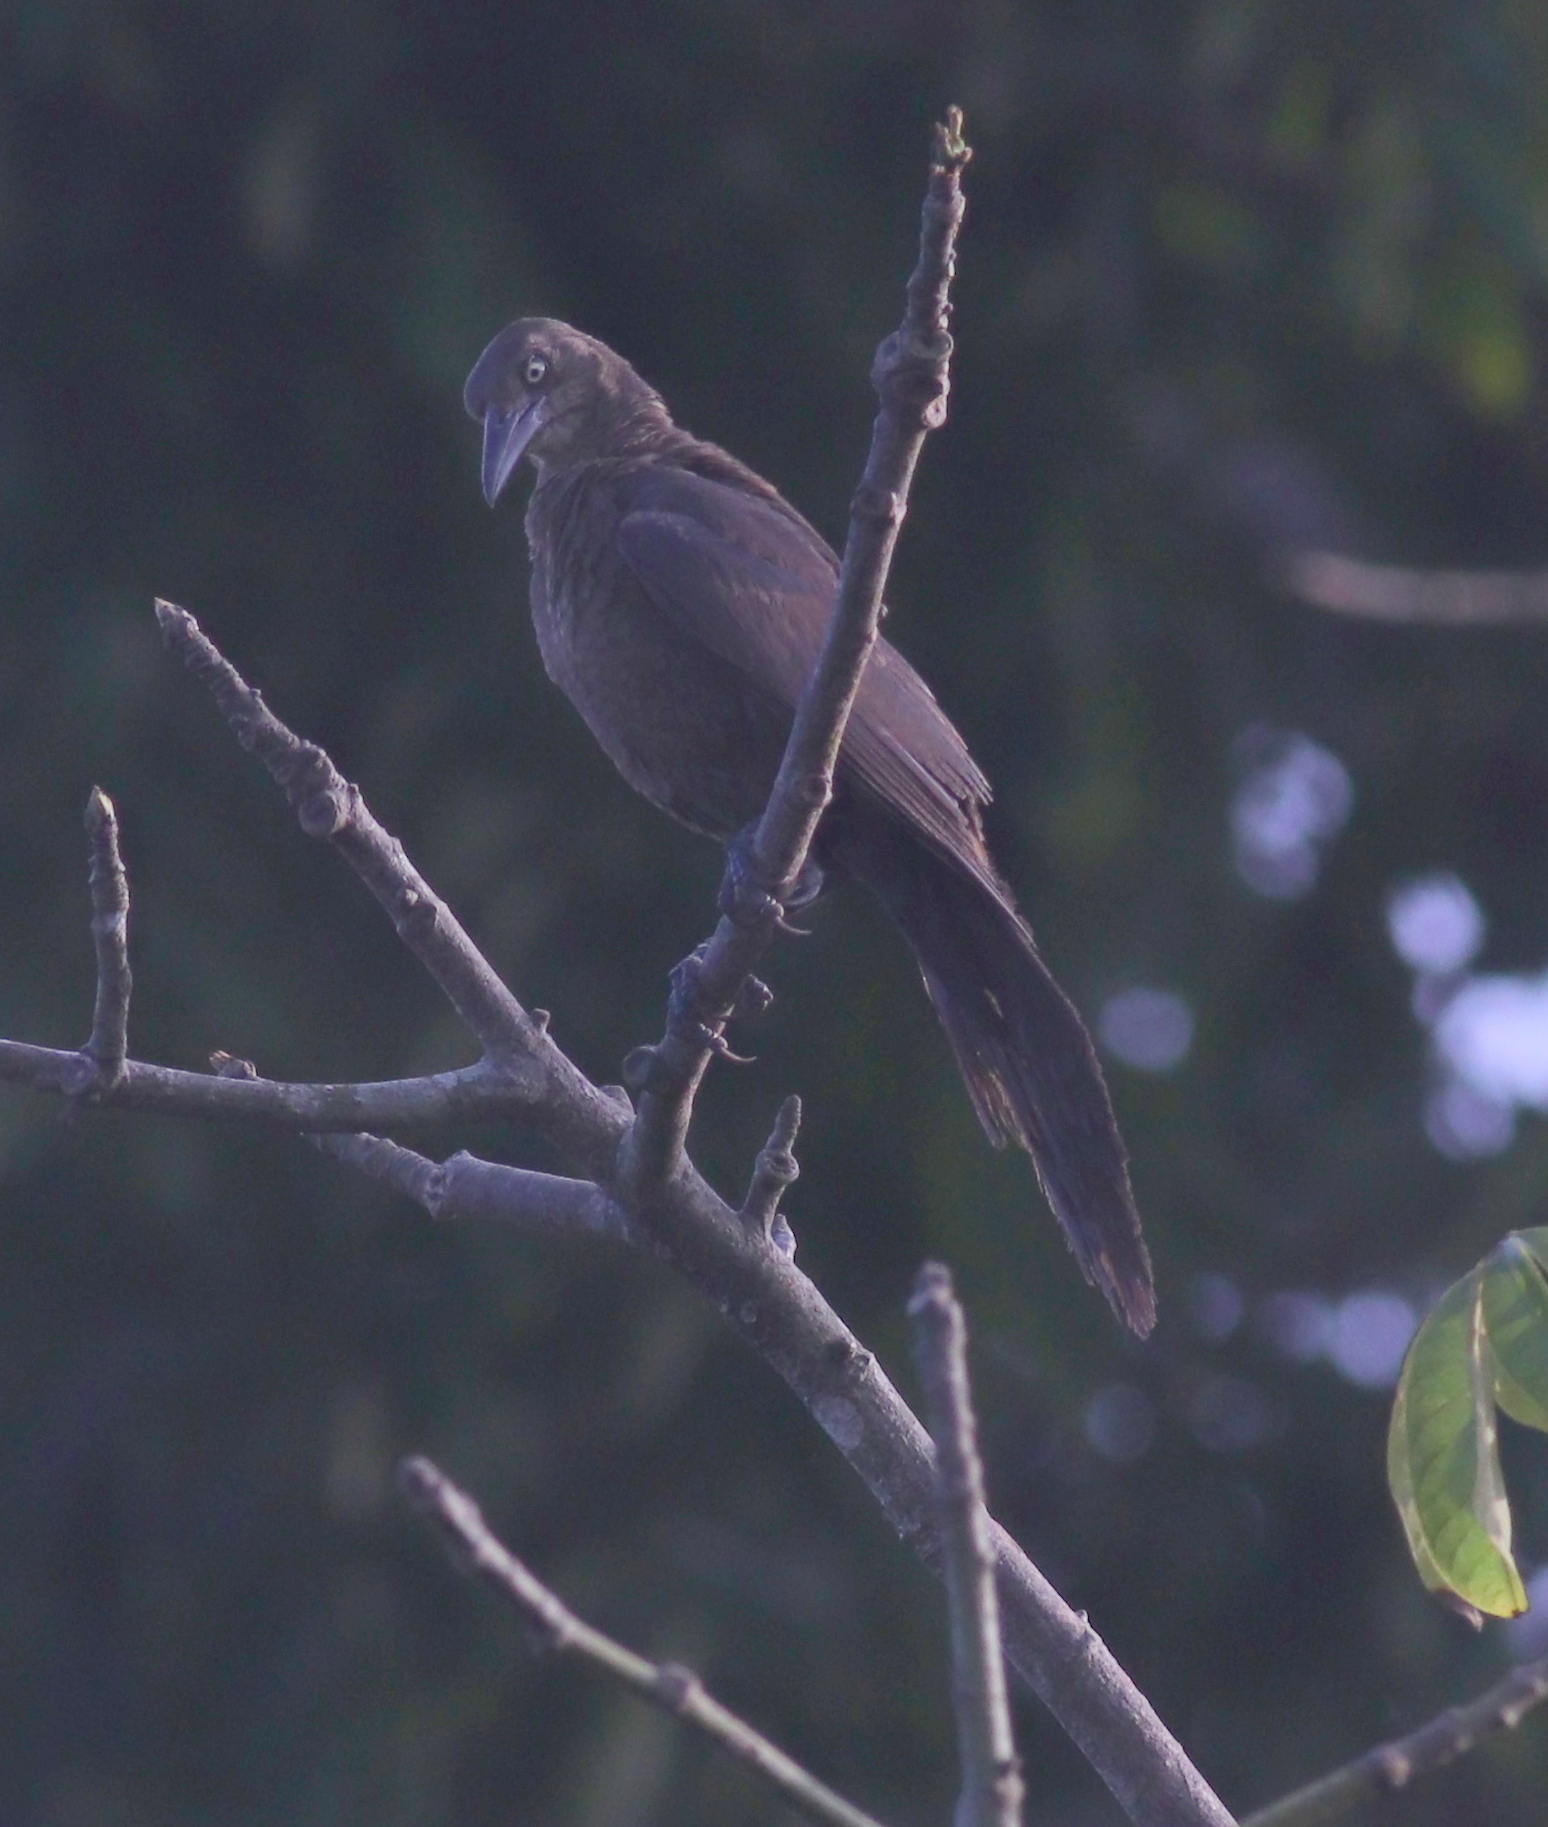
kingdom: Animalia
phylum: Chordata
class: Aves
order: Passeriformes
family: Icteridae
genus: Quiscalus
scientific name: Quiscalus mexicanus
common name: Great-tailed grackle
